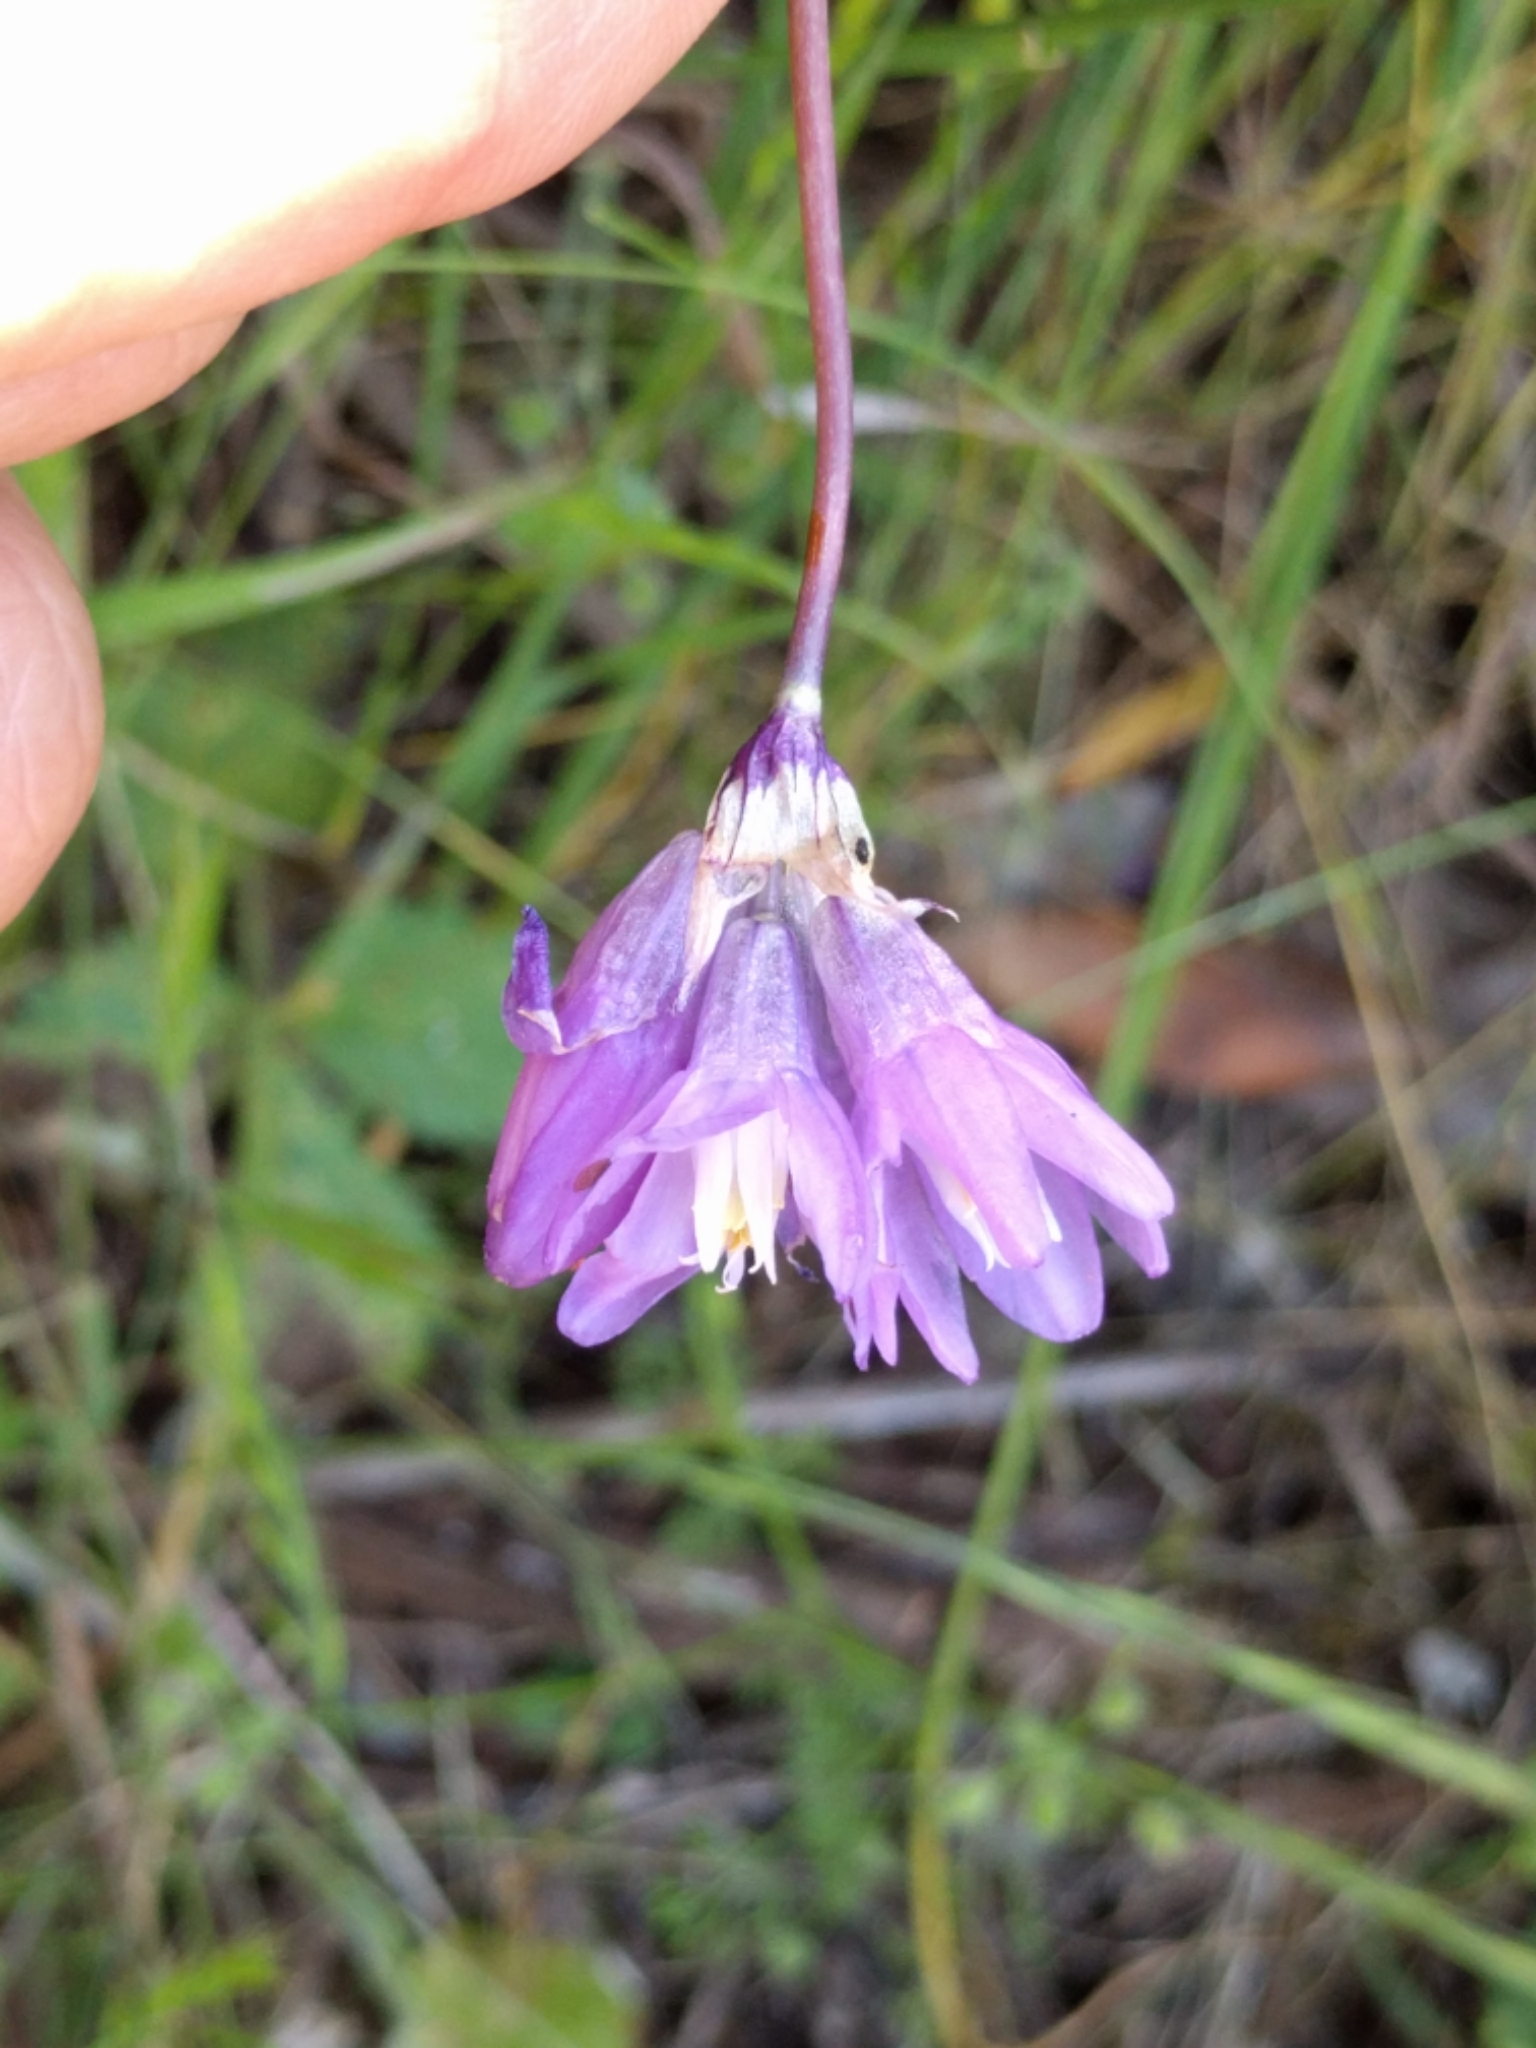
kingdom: Plantae
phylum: Tracheophyta
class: Liliopsida
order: Asparagales
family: Asparagaceae
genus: Dipterostemon
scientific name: Dipterostemon capitatus
